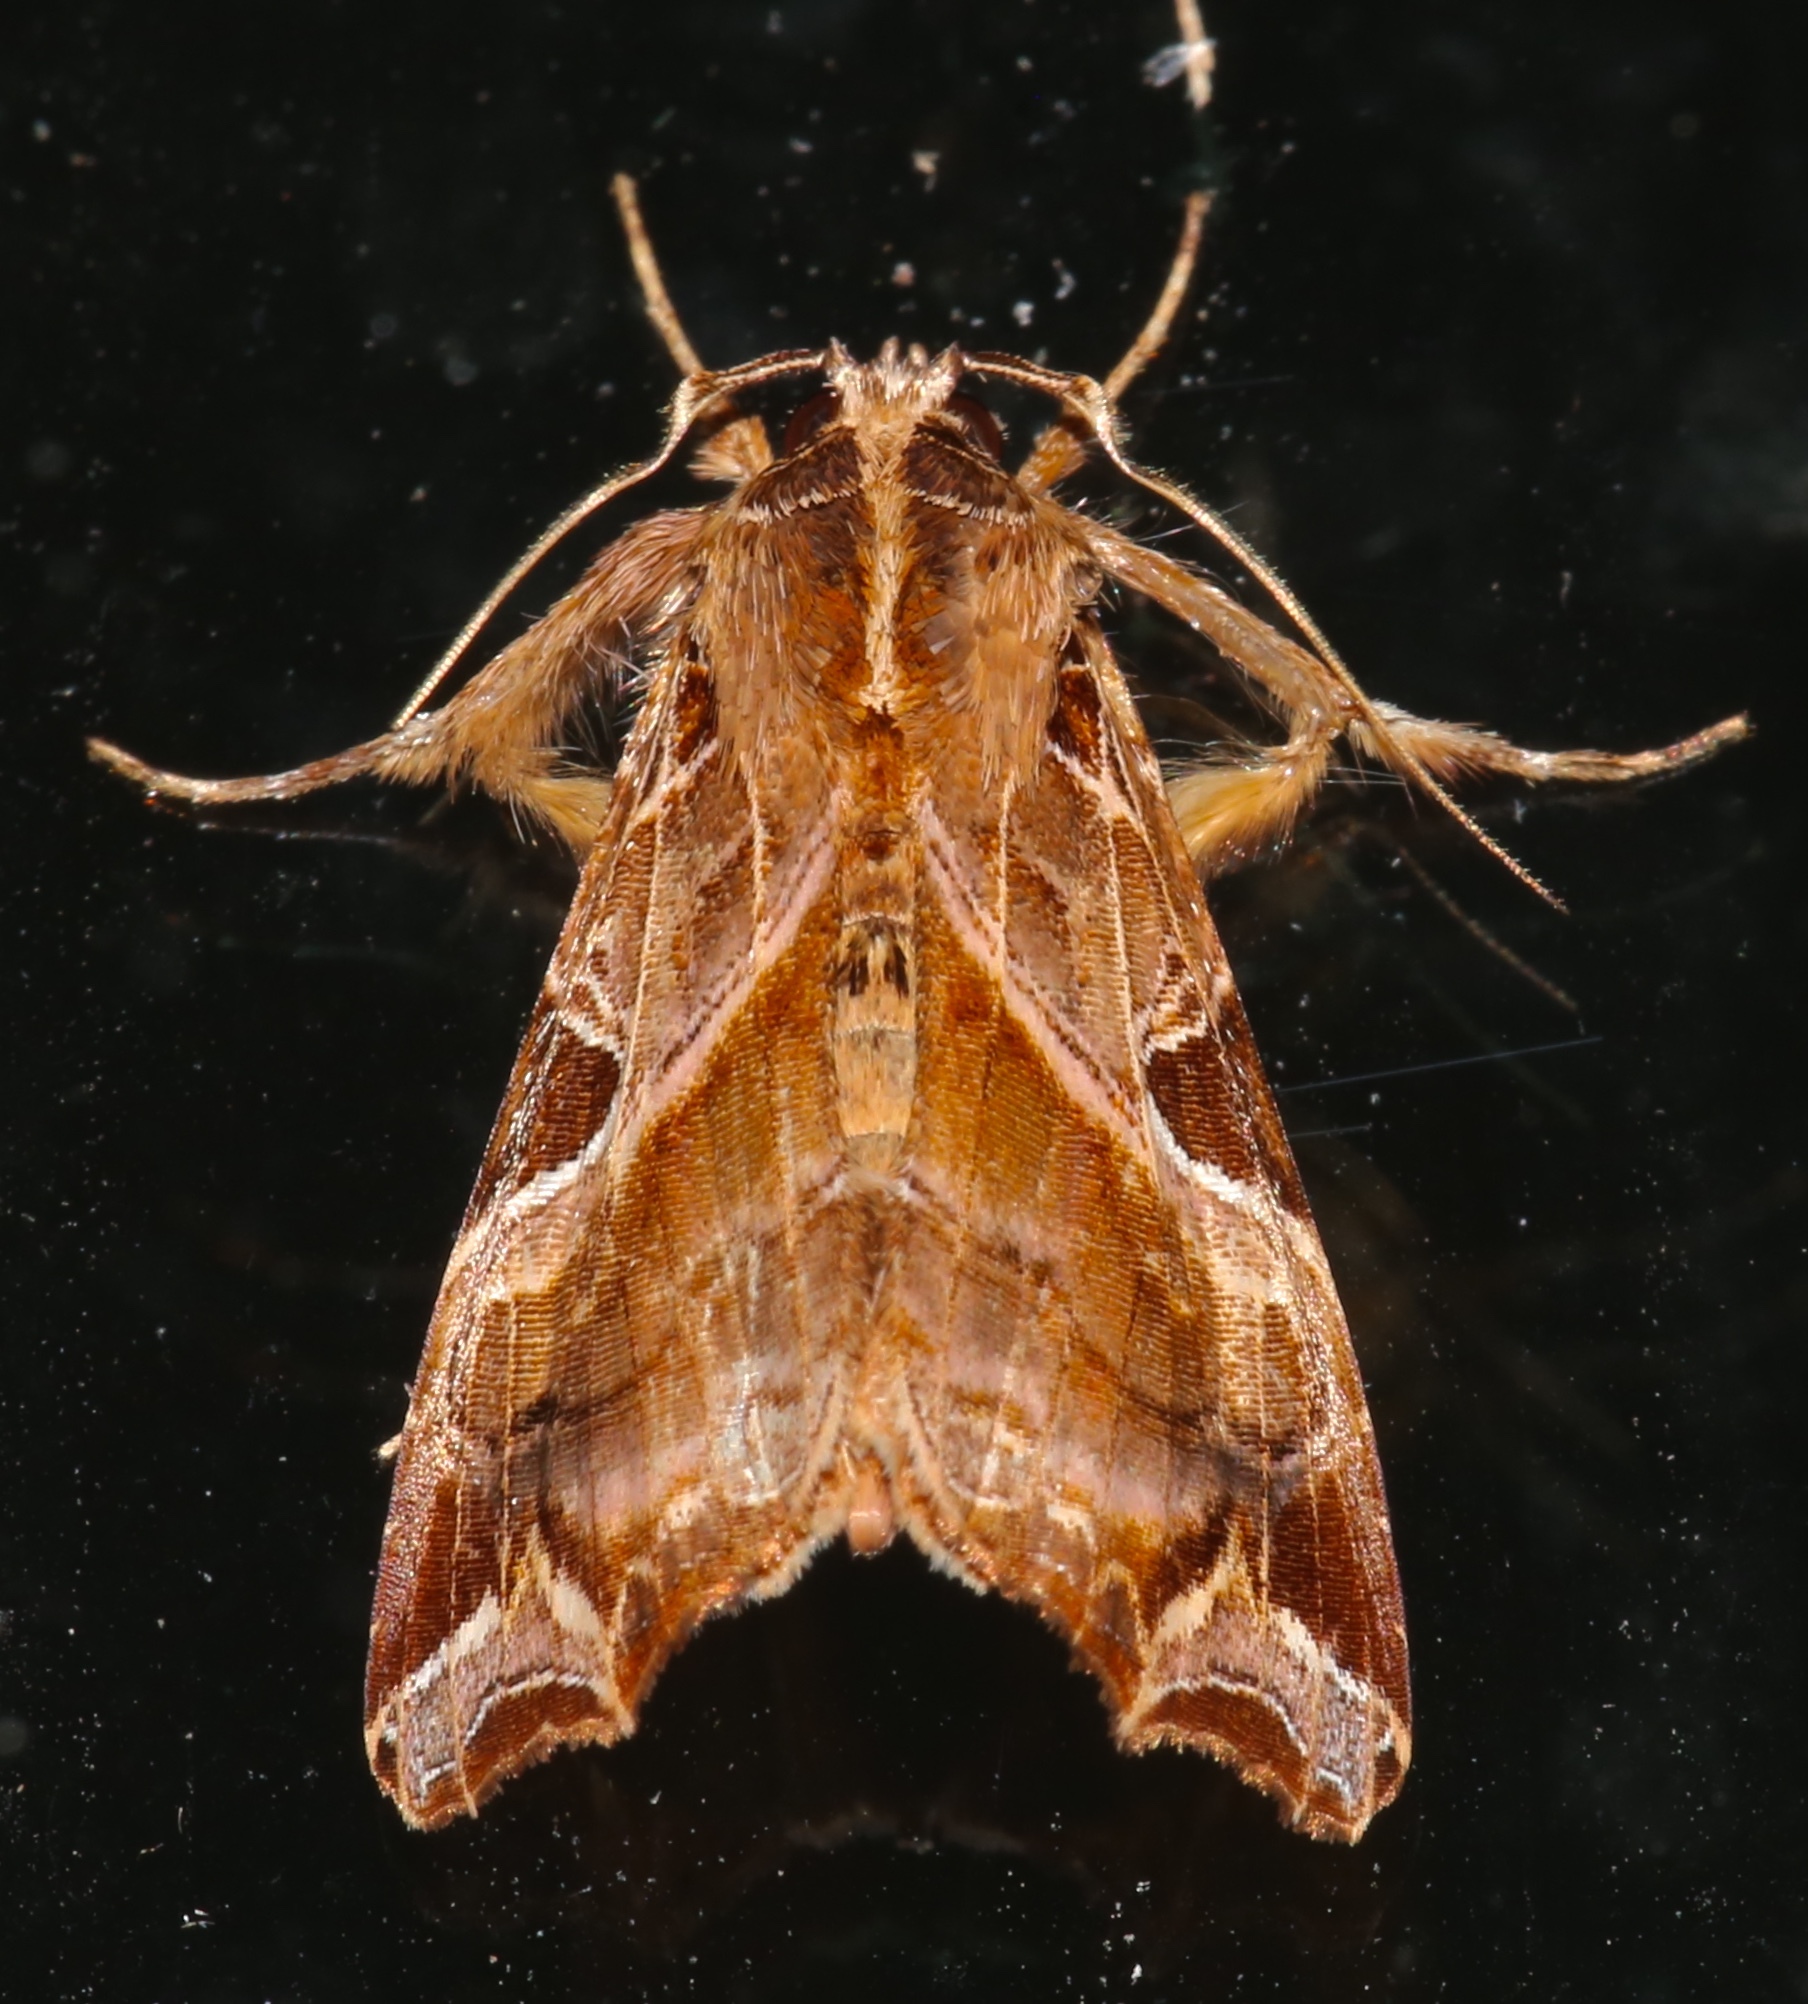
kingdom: Animalia
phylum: Arthropoda
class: Insecta
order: Lepidoptera
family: Noctuidae
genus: Callopistria
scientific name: Callopistria floridensis
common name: Florida fern moth
